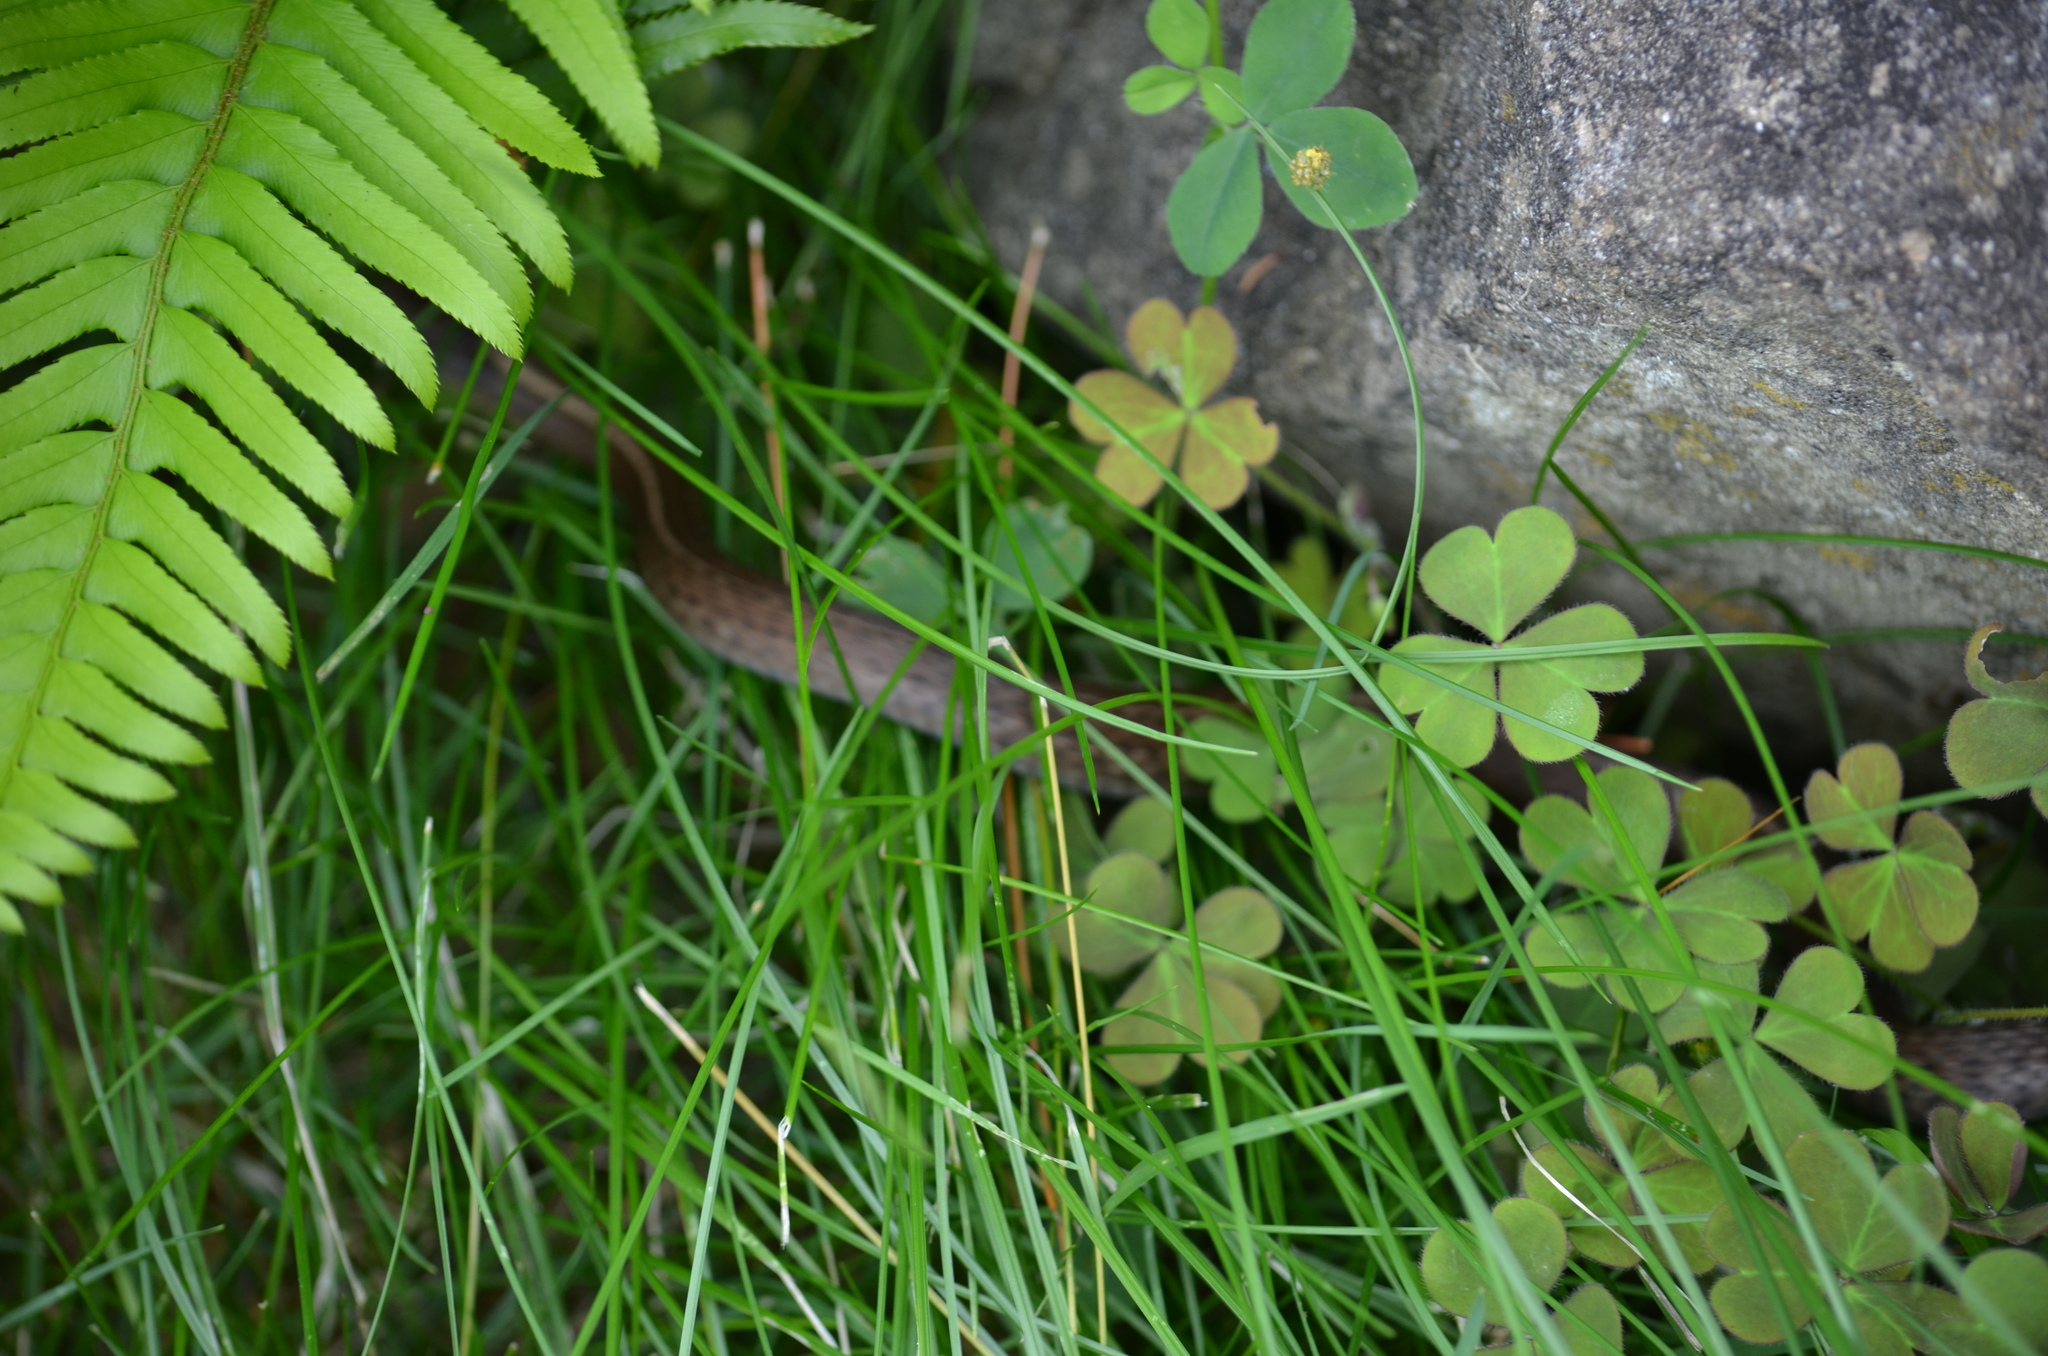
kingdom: Animalia
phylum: Chordata
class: Squamata
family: Colubridae
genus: Thamnophis
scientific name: Thamnophis elegans
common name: Western terrestrial garter snake
